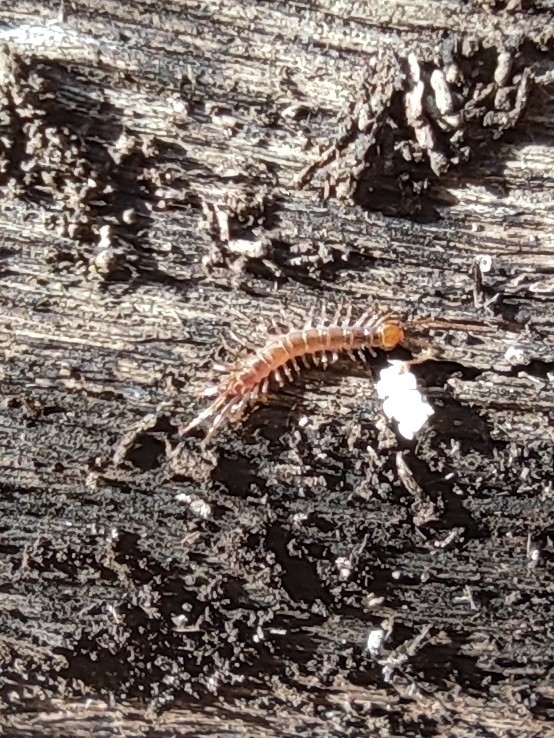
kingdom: Animalia
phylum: Arthropoda
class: Chilopoda
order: Lithobiomorpha
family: Lithobiidae
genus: Lithobius
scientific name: Lithobius forficatus
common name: Centipede
